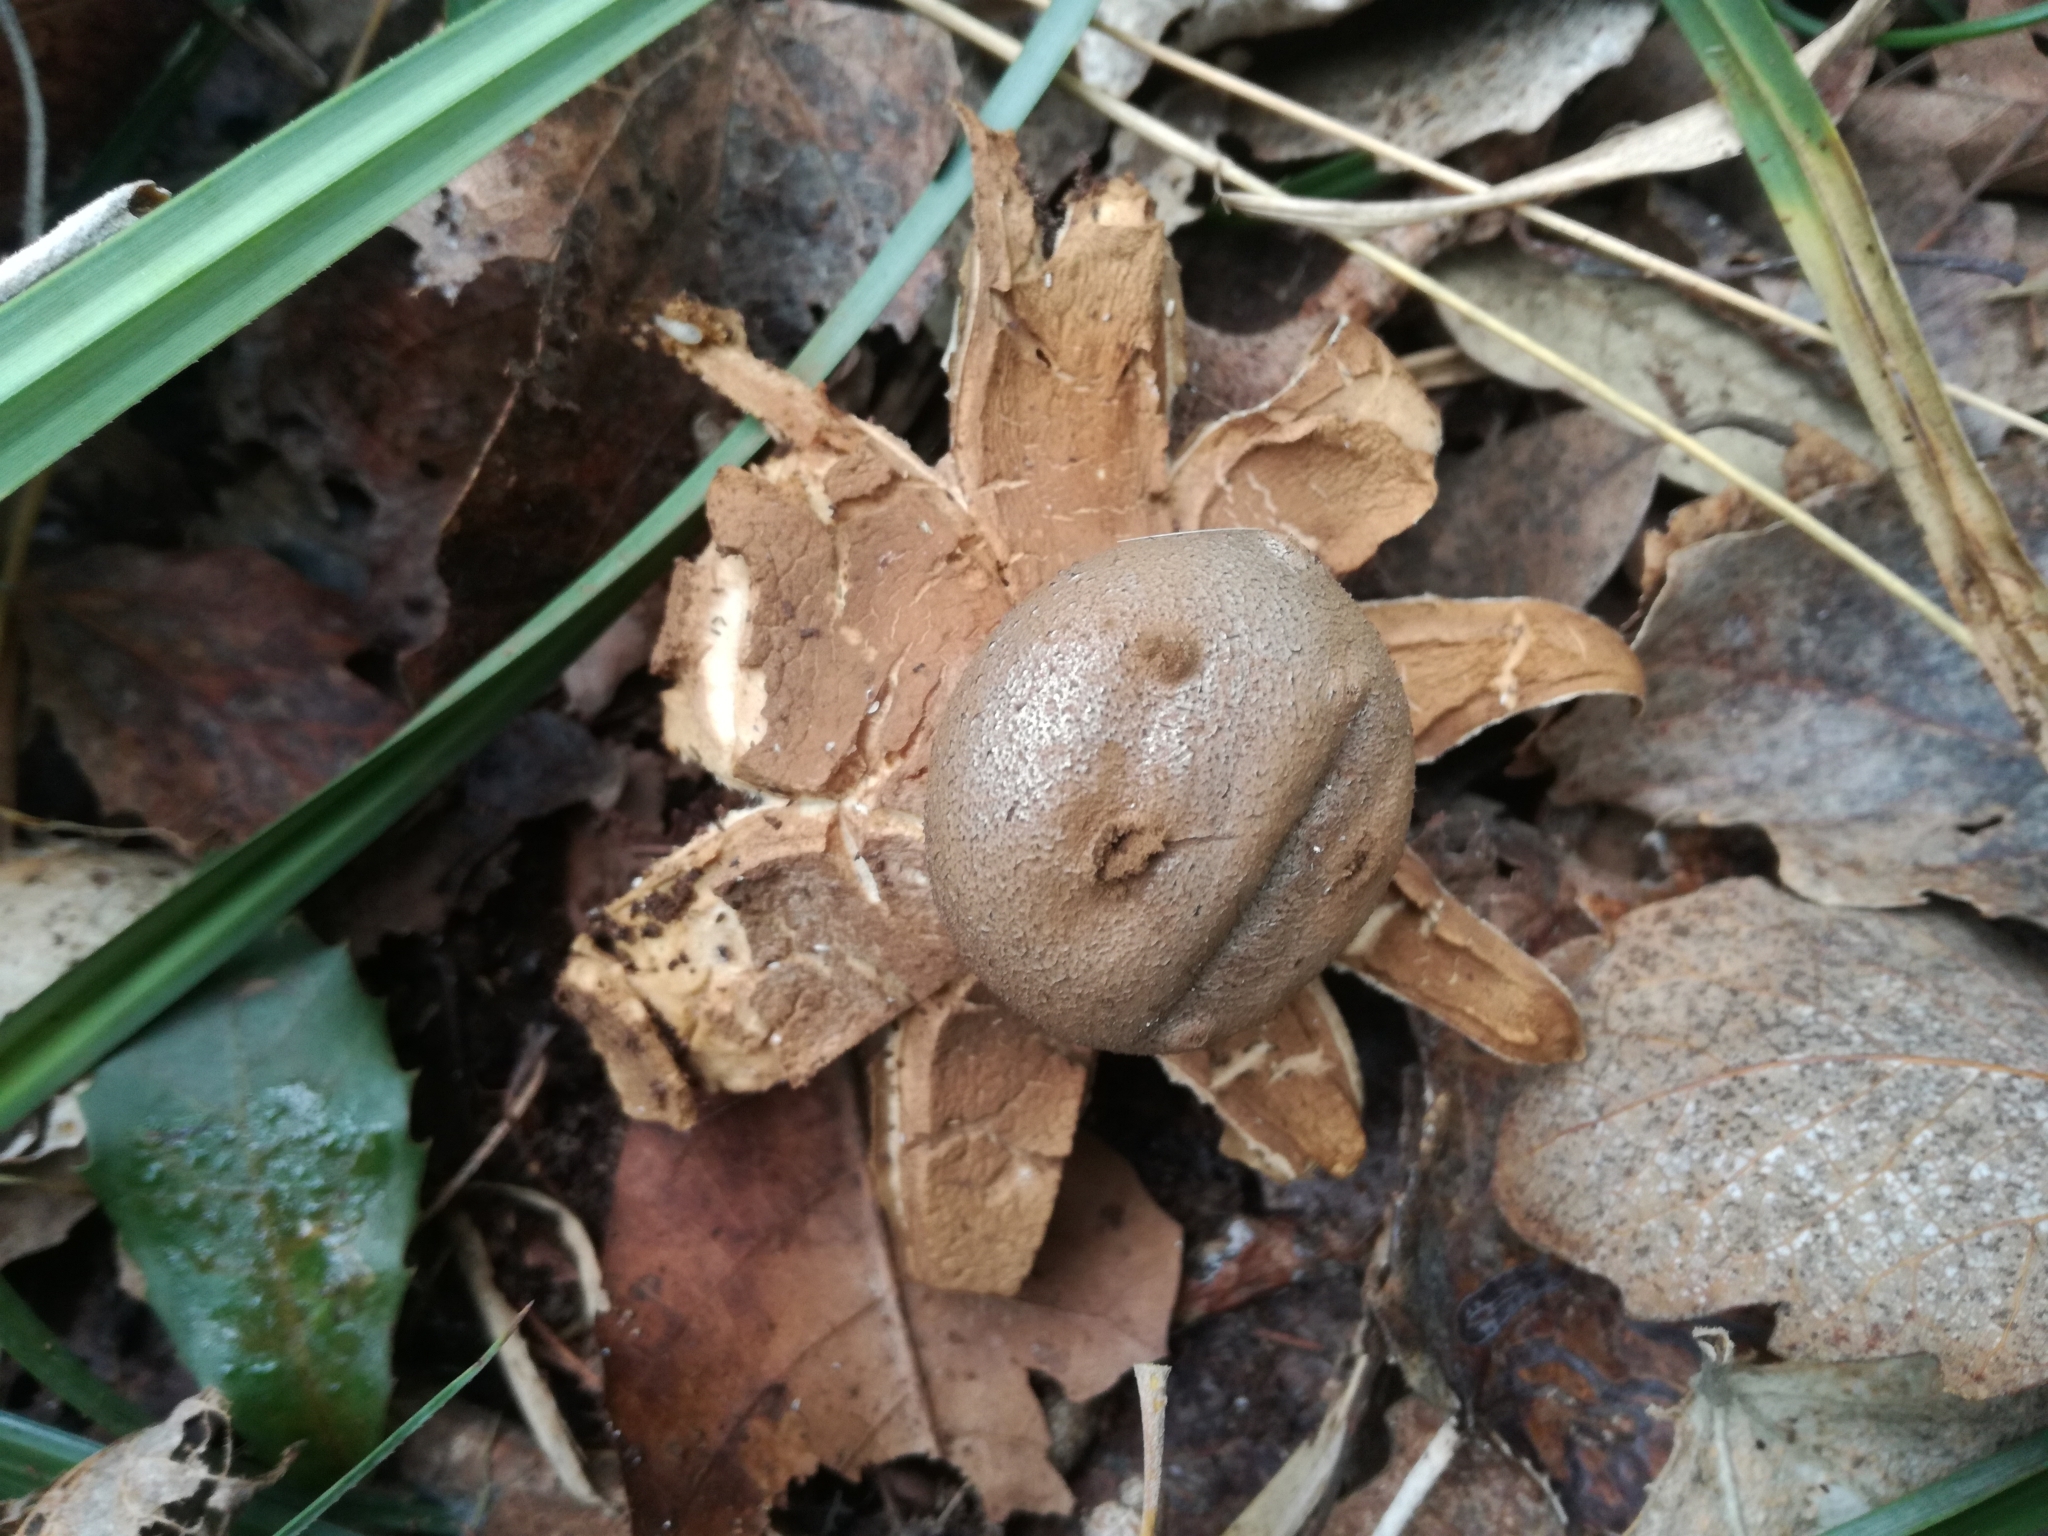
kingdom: Fungi
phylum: Basidiomycota
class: Agaricomycetes
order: Geastrales
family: Geastraceae
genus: Myriostoma
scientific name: Myriostoma coliforme
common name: Pepper pot
